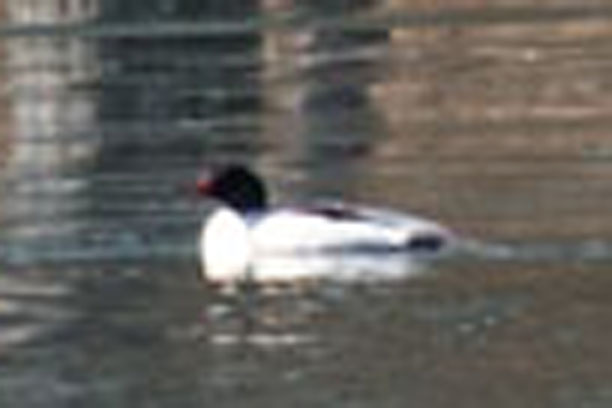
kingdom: Animalia
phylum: Chordata
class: Aves
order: Anseriformes
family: Anatidae
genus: Mergus
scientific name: Mergus merganser
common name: Common merganser
